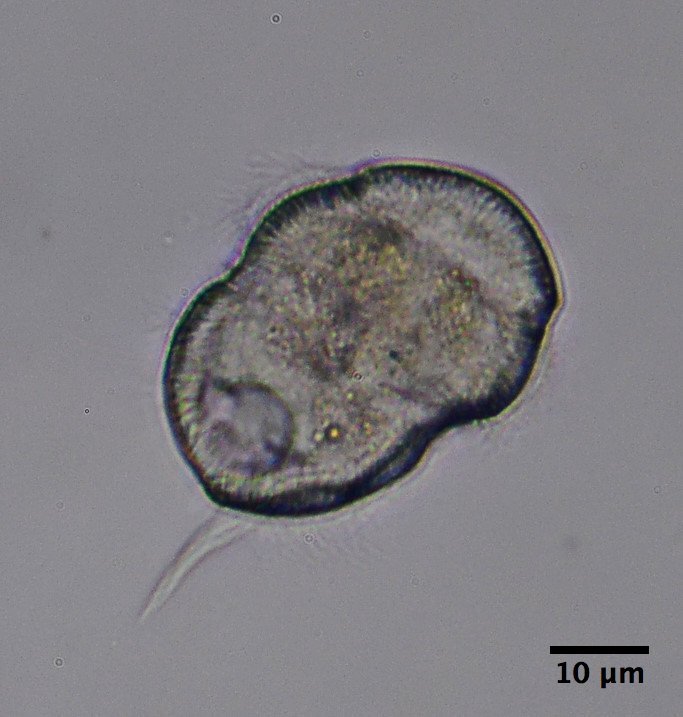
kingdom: Chromista
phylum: Ciliophora
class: Oligohymenophorea
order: Hymenostomatida
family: Urocentridae
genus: Urocentrum
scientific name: Urocentrum turbo
